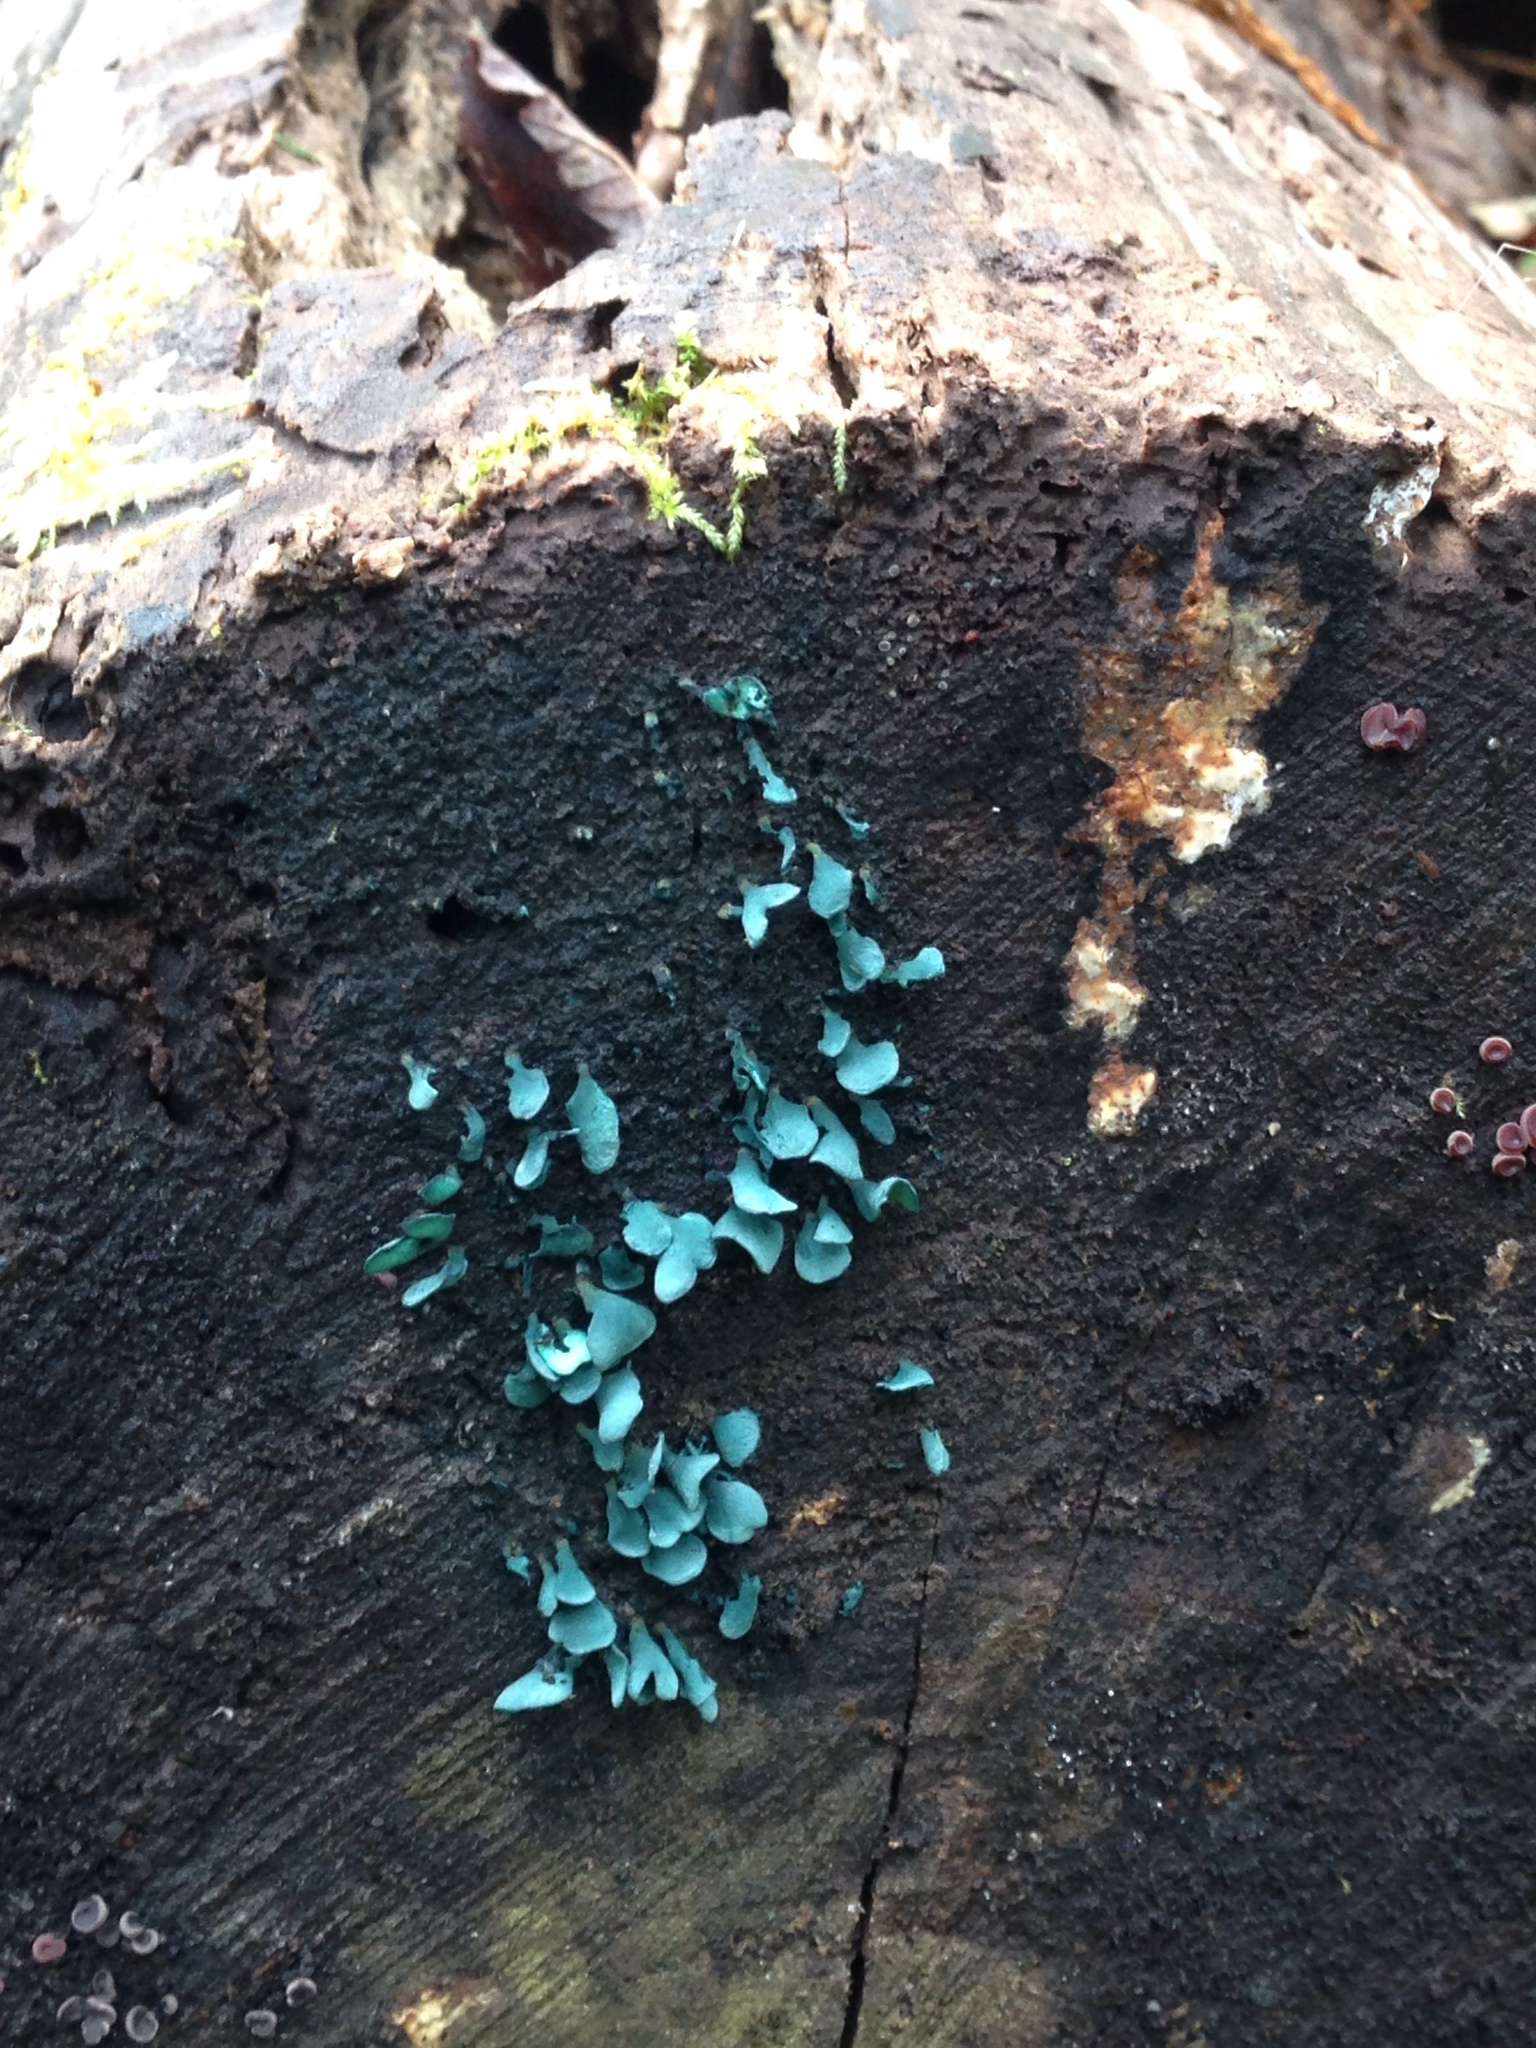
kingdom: Fungi
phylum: Ascomycota
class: Leotiomycetes
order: Helotiales
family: Chlorociboriaceae
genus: Chlorociboria
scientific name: Chlorociboria aeruginascens
